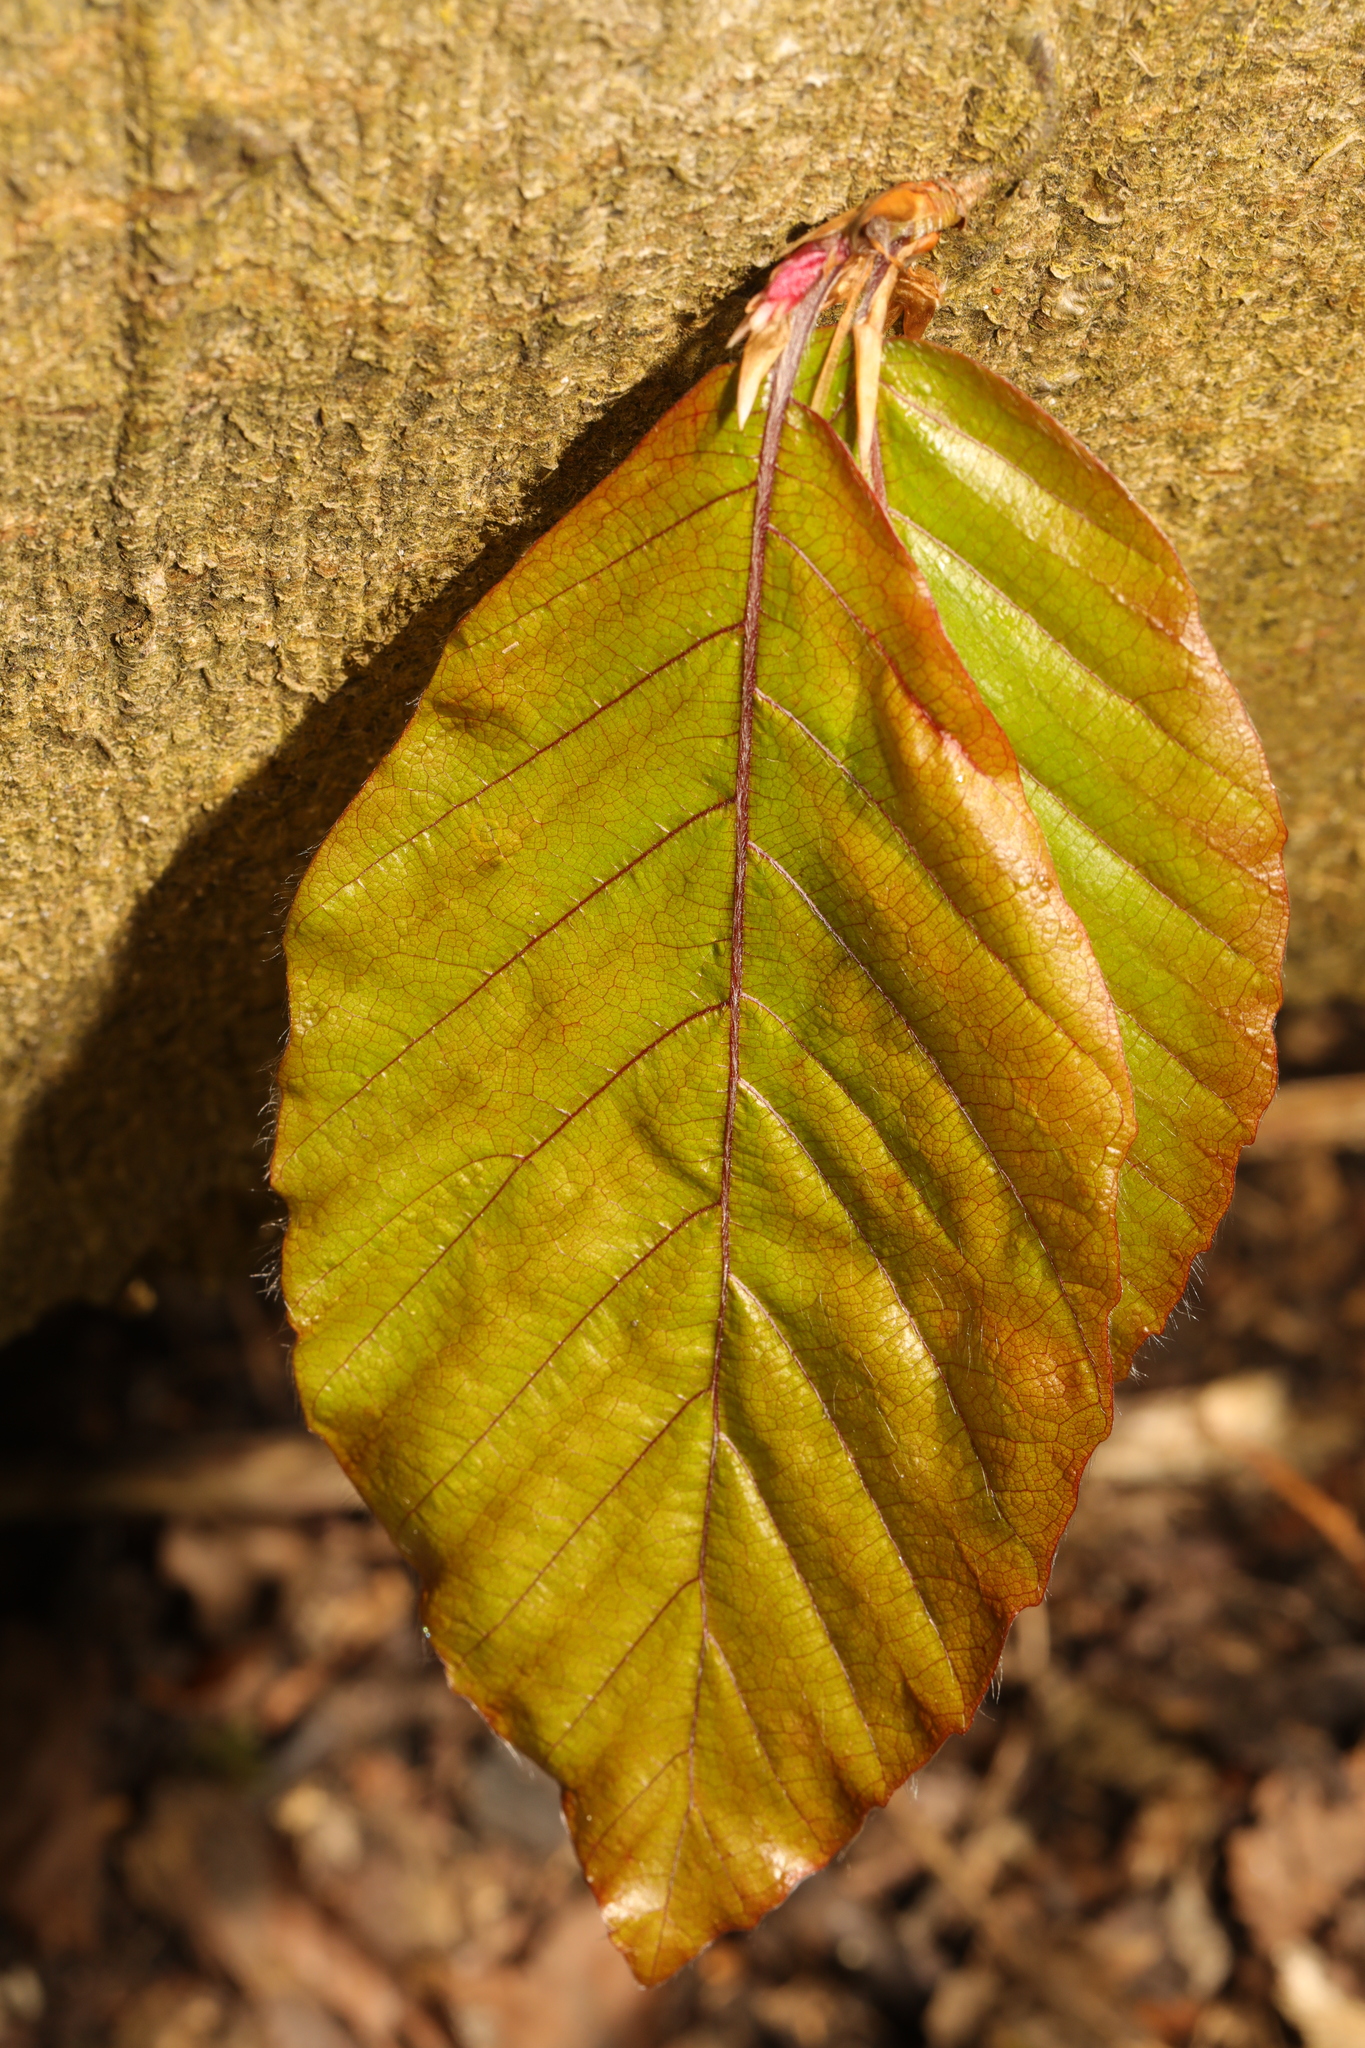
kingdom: Plantae
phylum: Tracheophyta
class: Magnoliopsida
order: Fagales
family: Fagaceae
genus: Fagus
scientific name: Fagus sylvatica
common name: Beech
